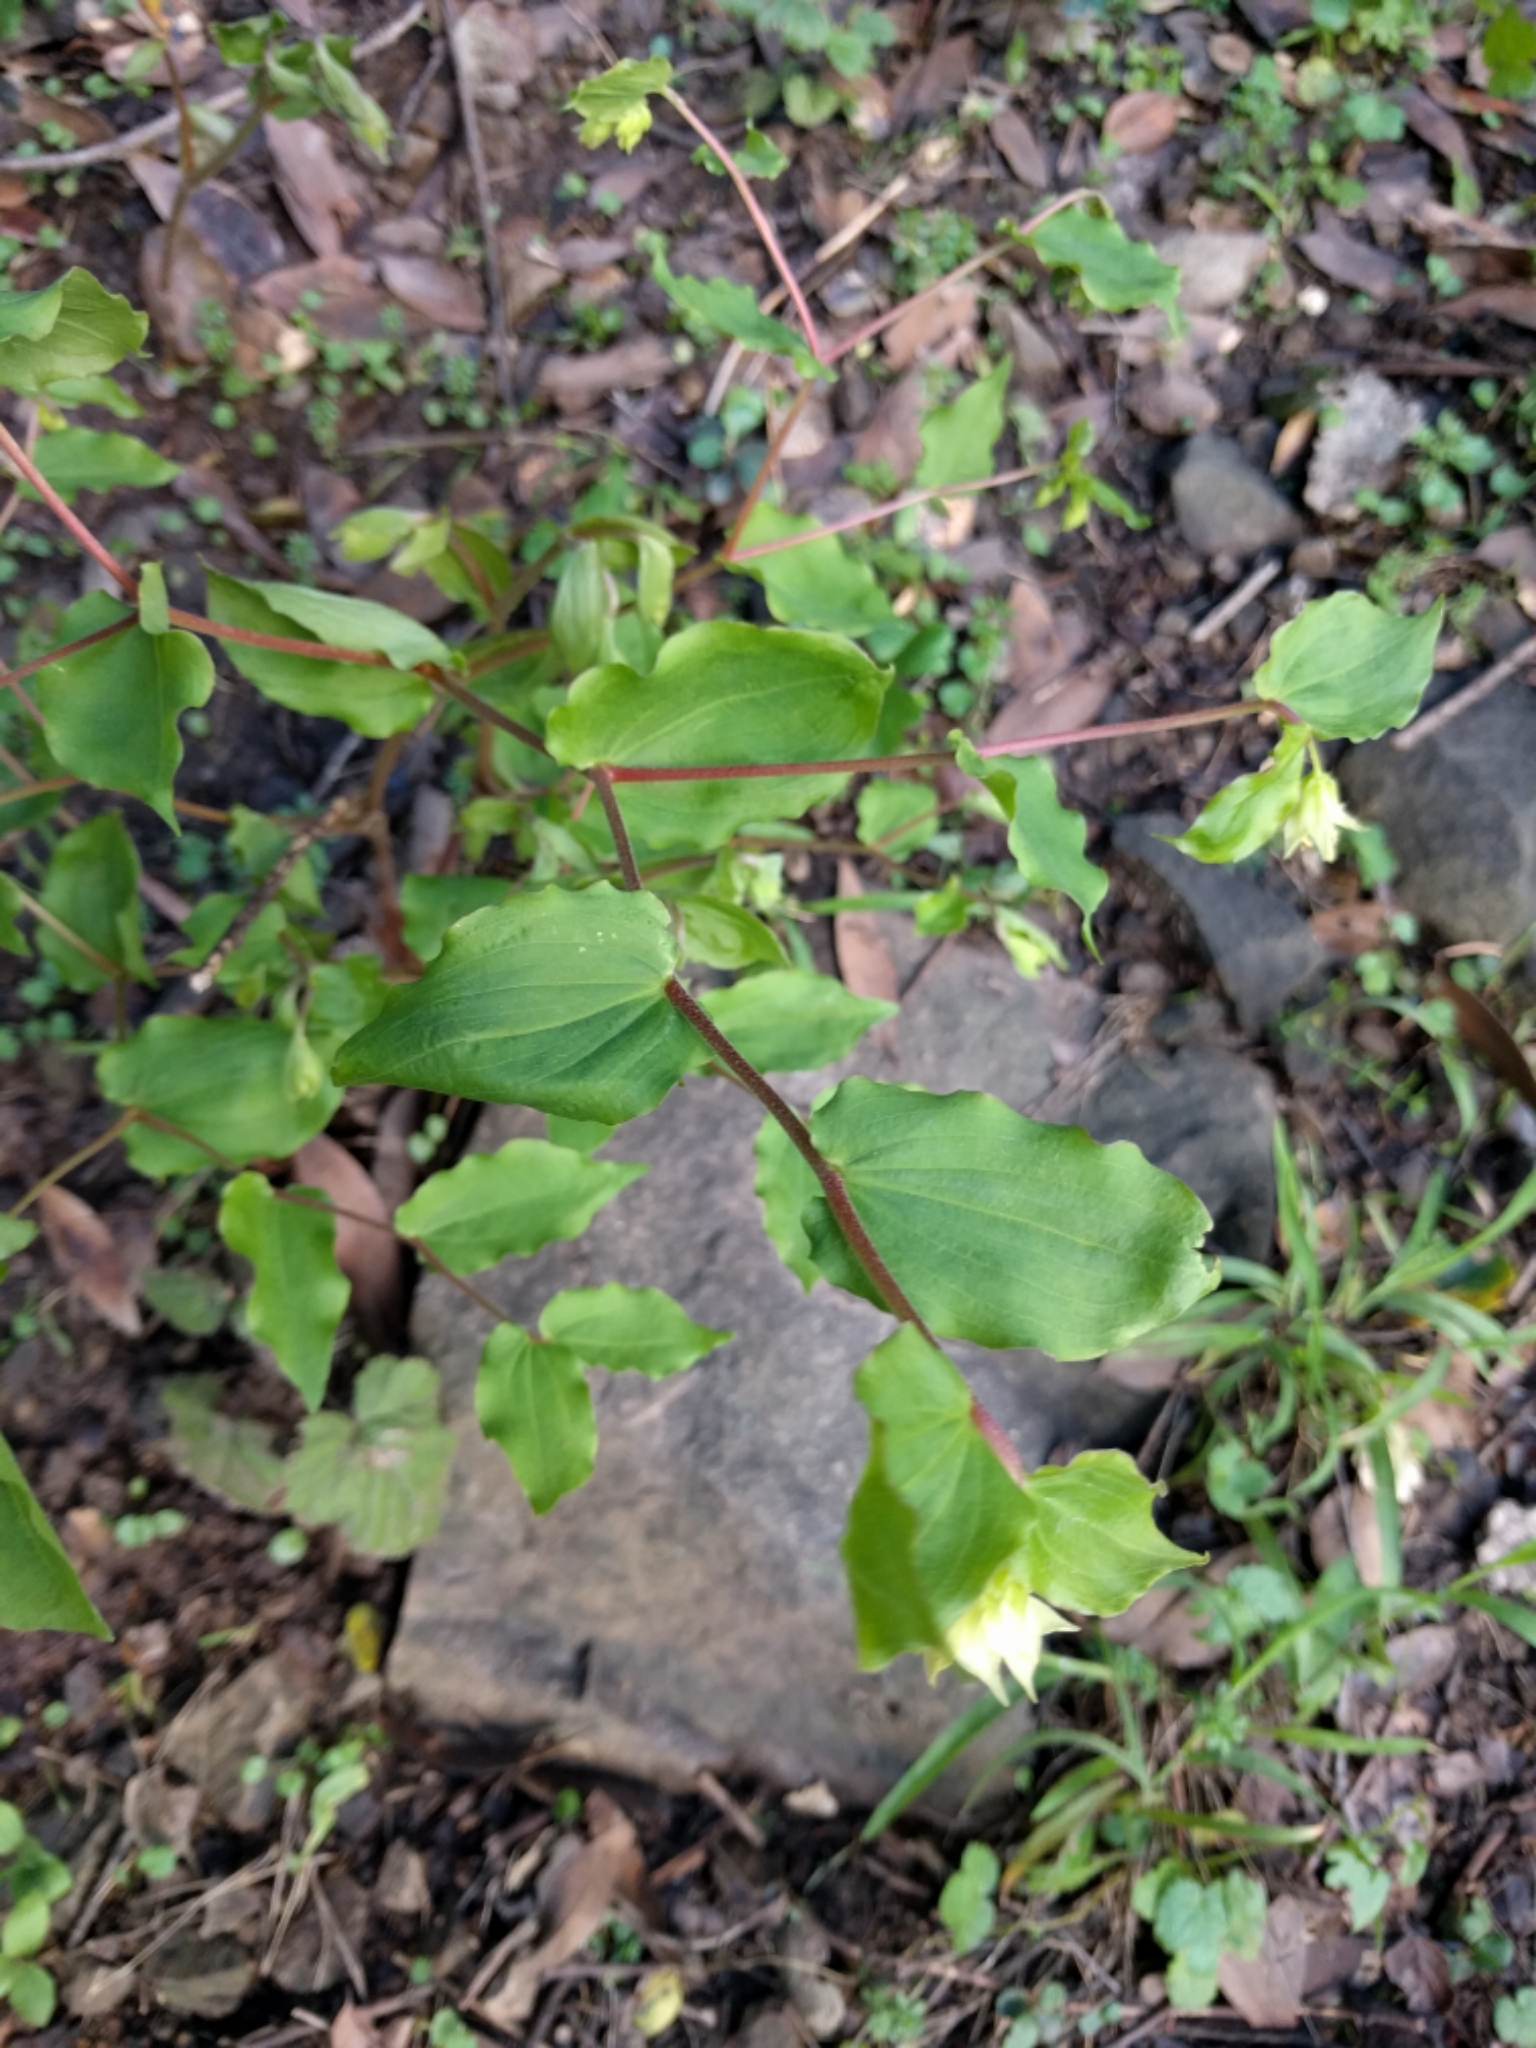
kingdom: Plantae
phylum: Tracheophyta
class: Liliopsida
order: Liliales
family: Liliaceae
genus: Prosartes
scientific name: Prosartes hookeri
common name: Fairy-bells
